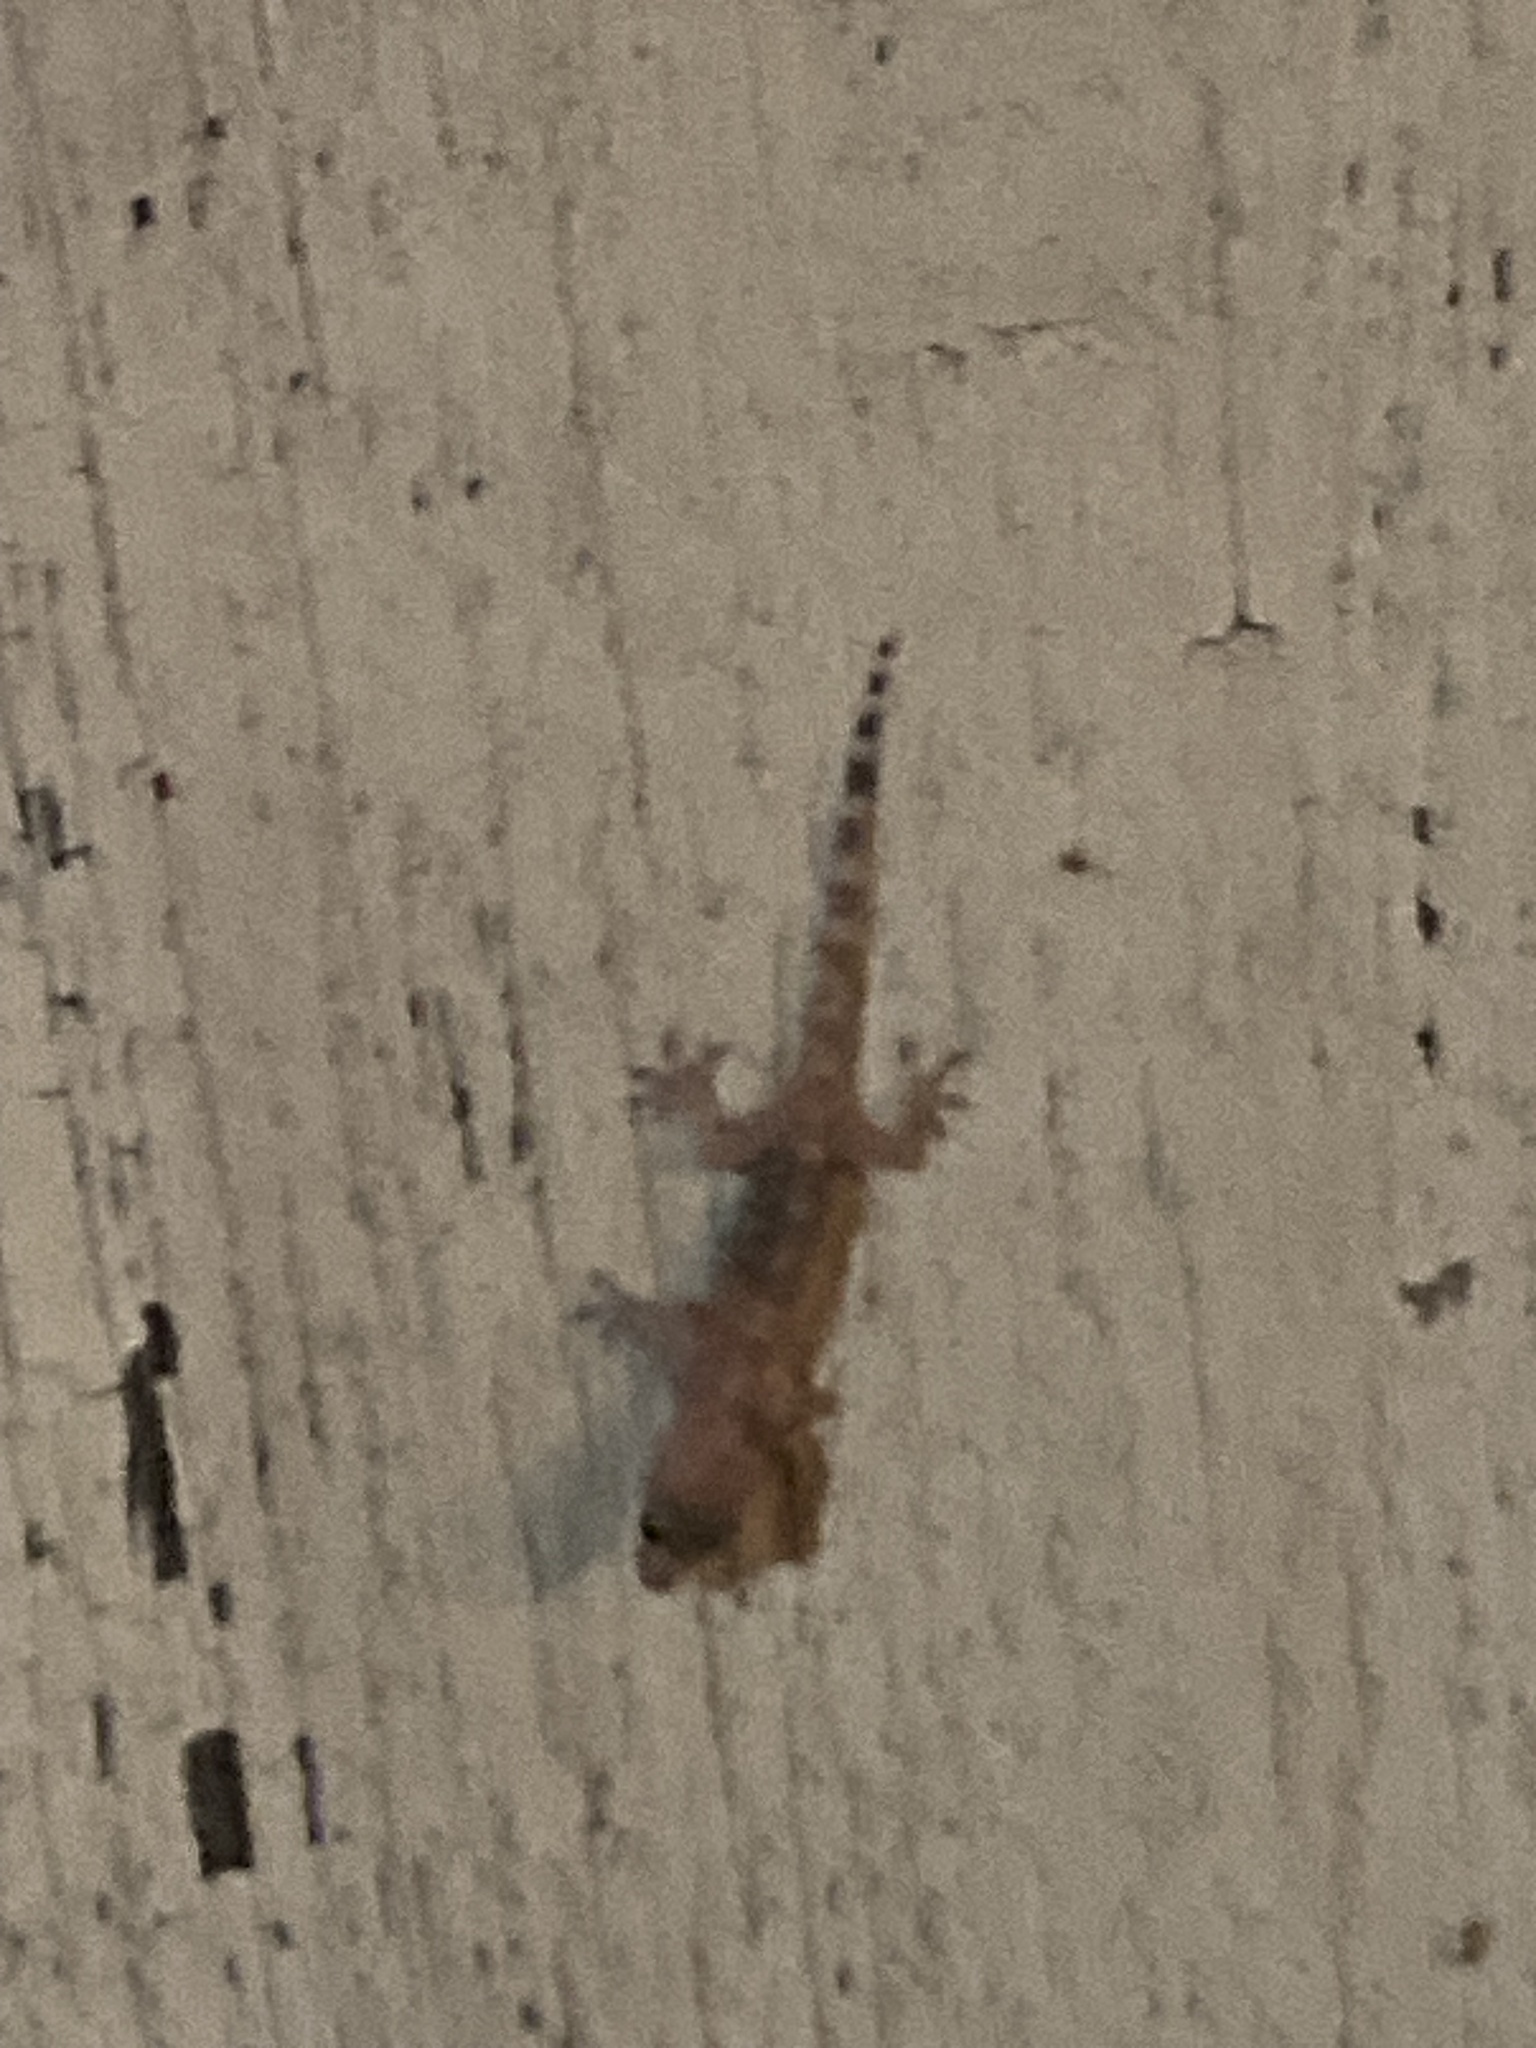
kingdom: Animalia
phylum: Chordata
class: Squamata
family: Gekkonidae
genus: Hemidactylus
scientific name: Hemidactylus turcicus
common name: Turkish gecko
